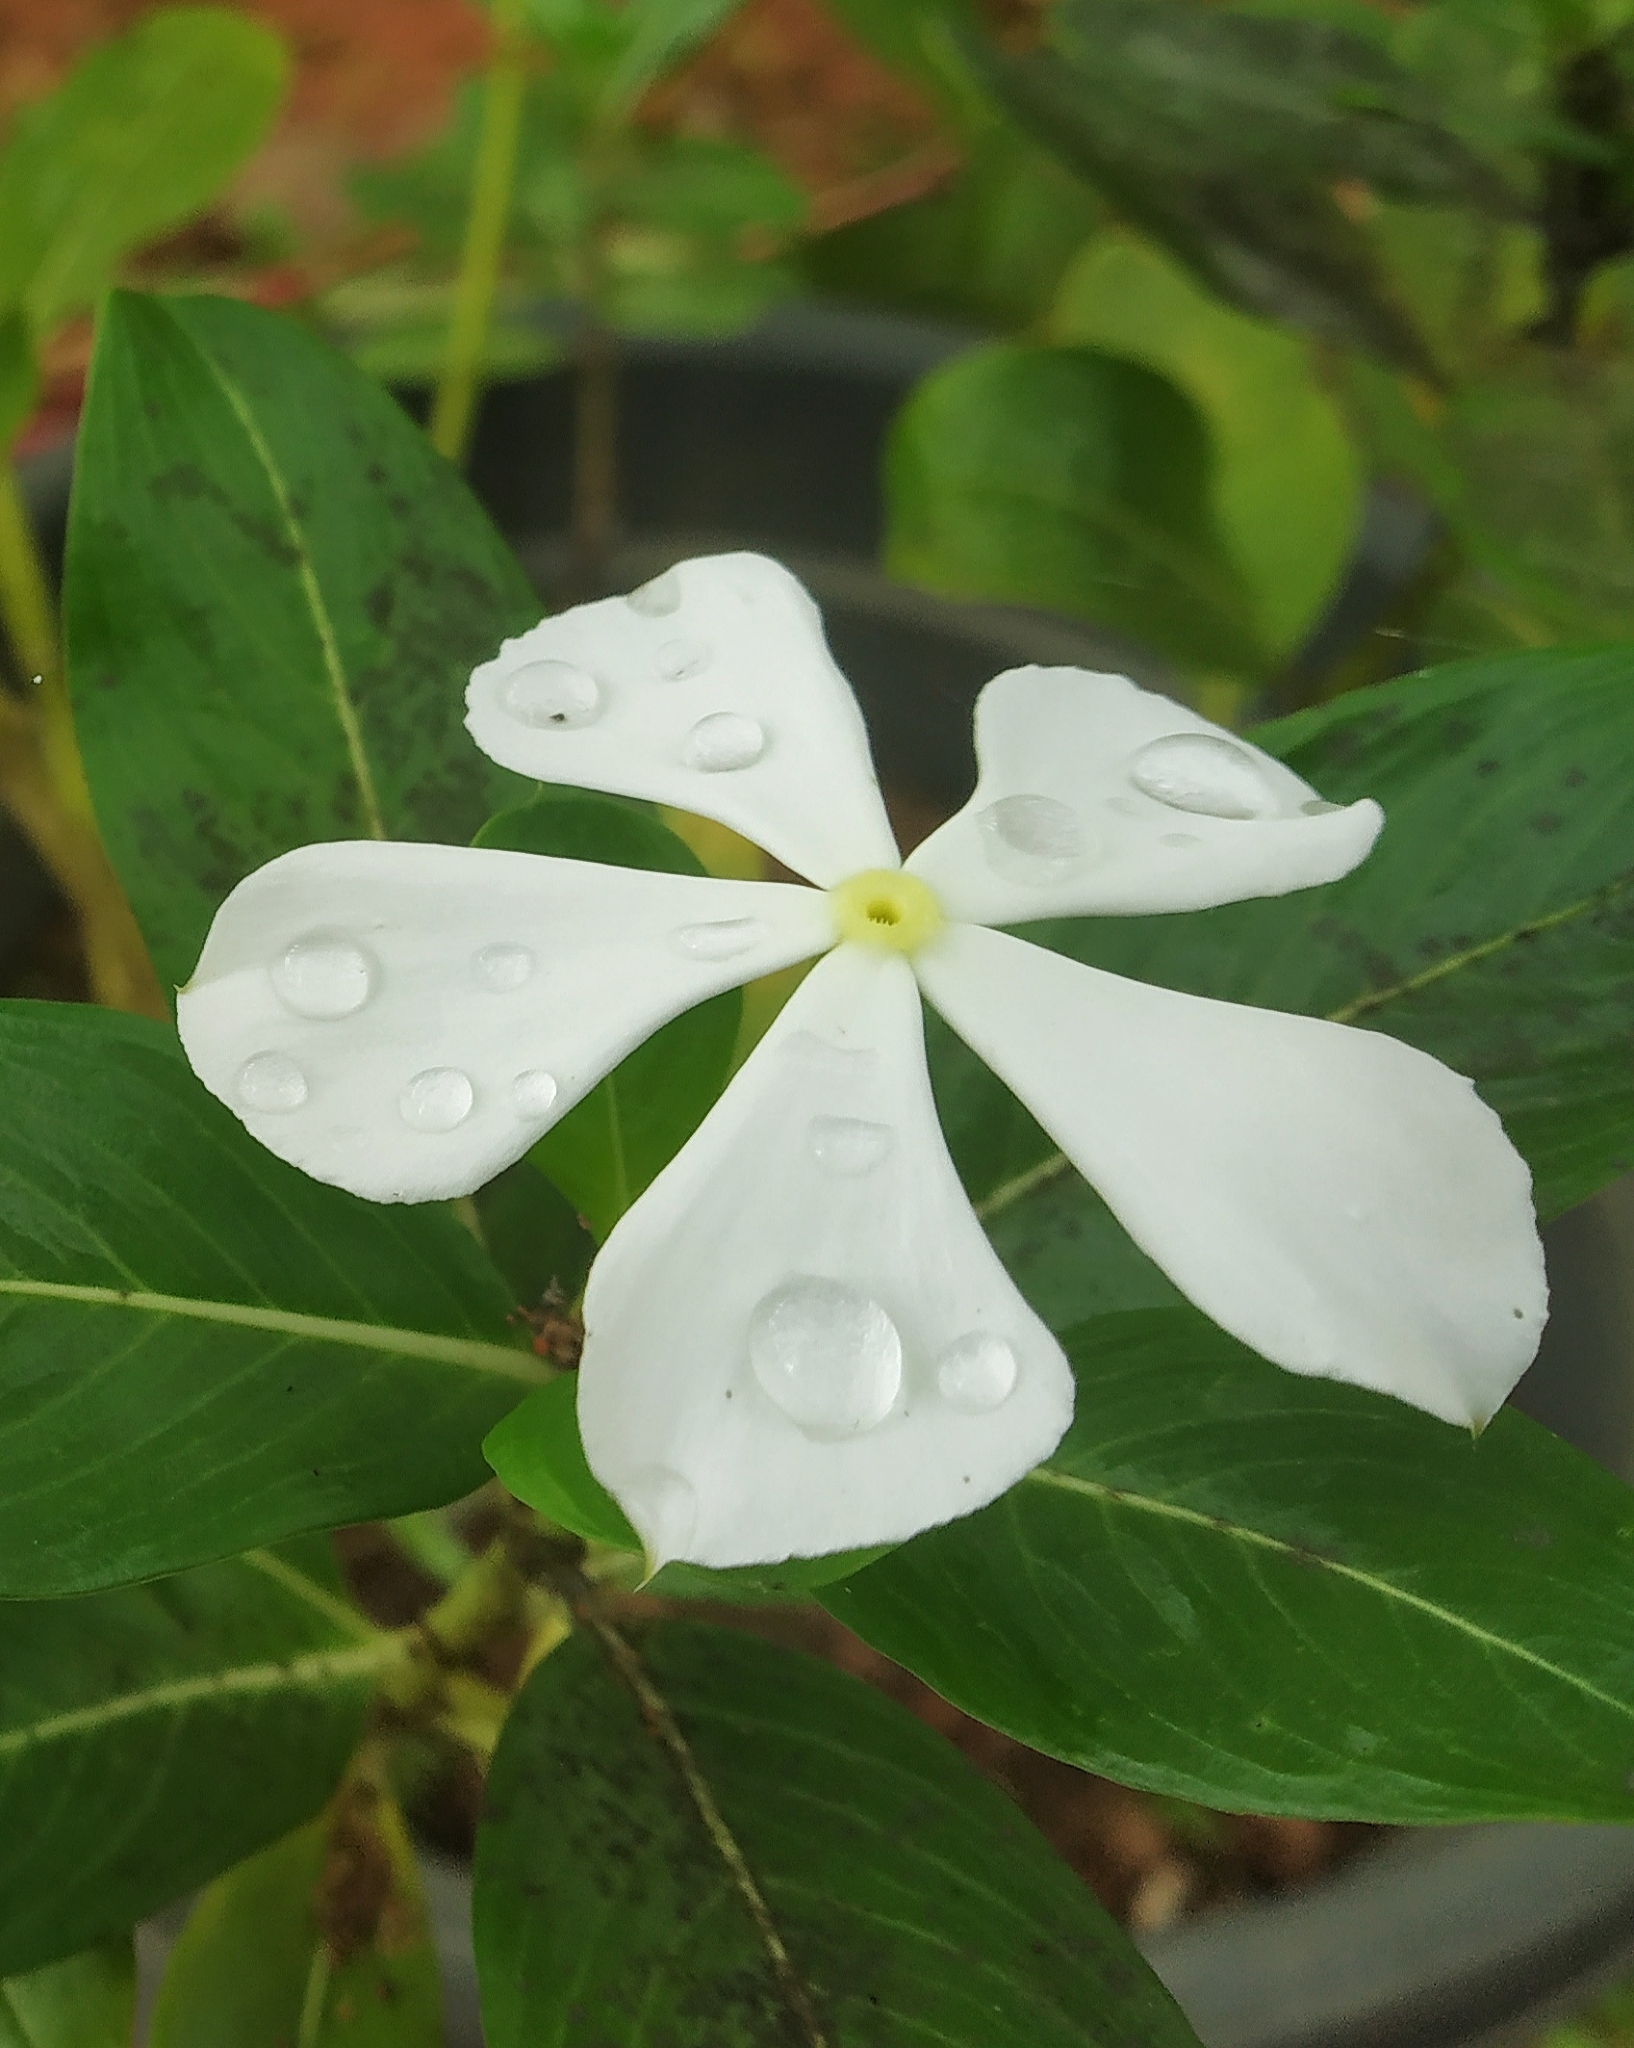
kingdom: Plantae
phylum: Tracheophyta
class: Magnoliopsida
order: Gentianales
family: Apocynaceae
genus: Catharanthus
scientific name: Catharanthus roseus
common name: Madagascar periwinkle
